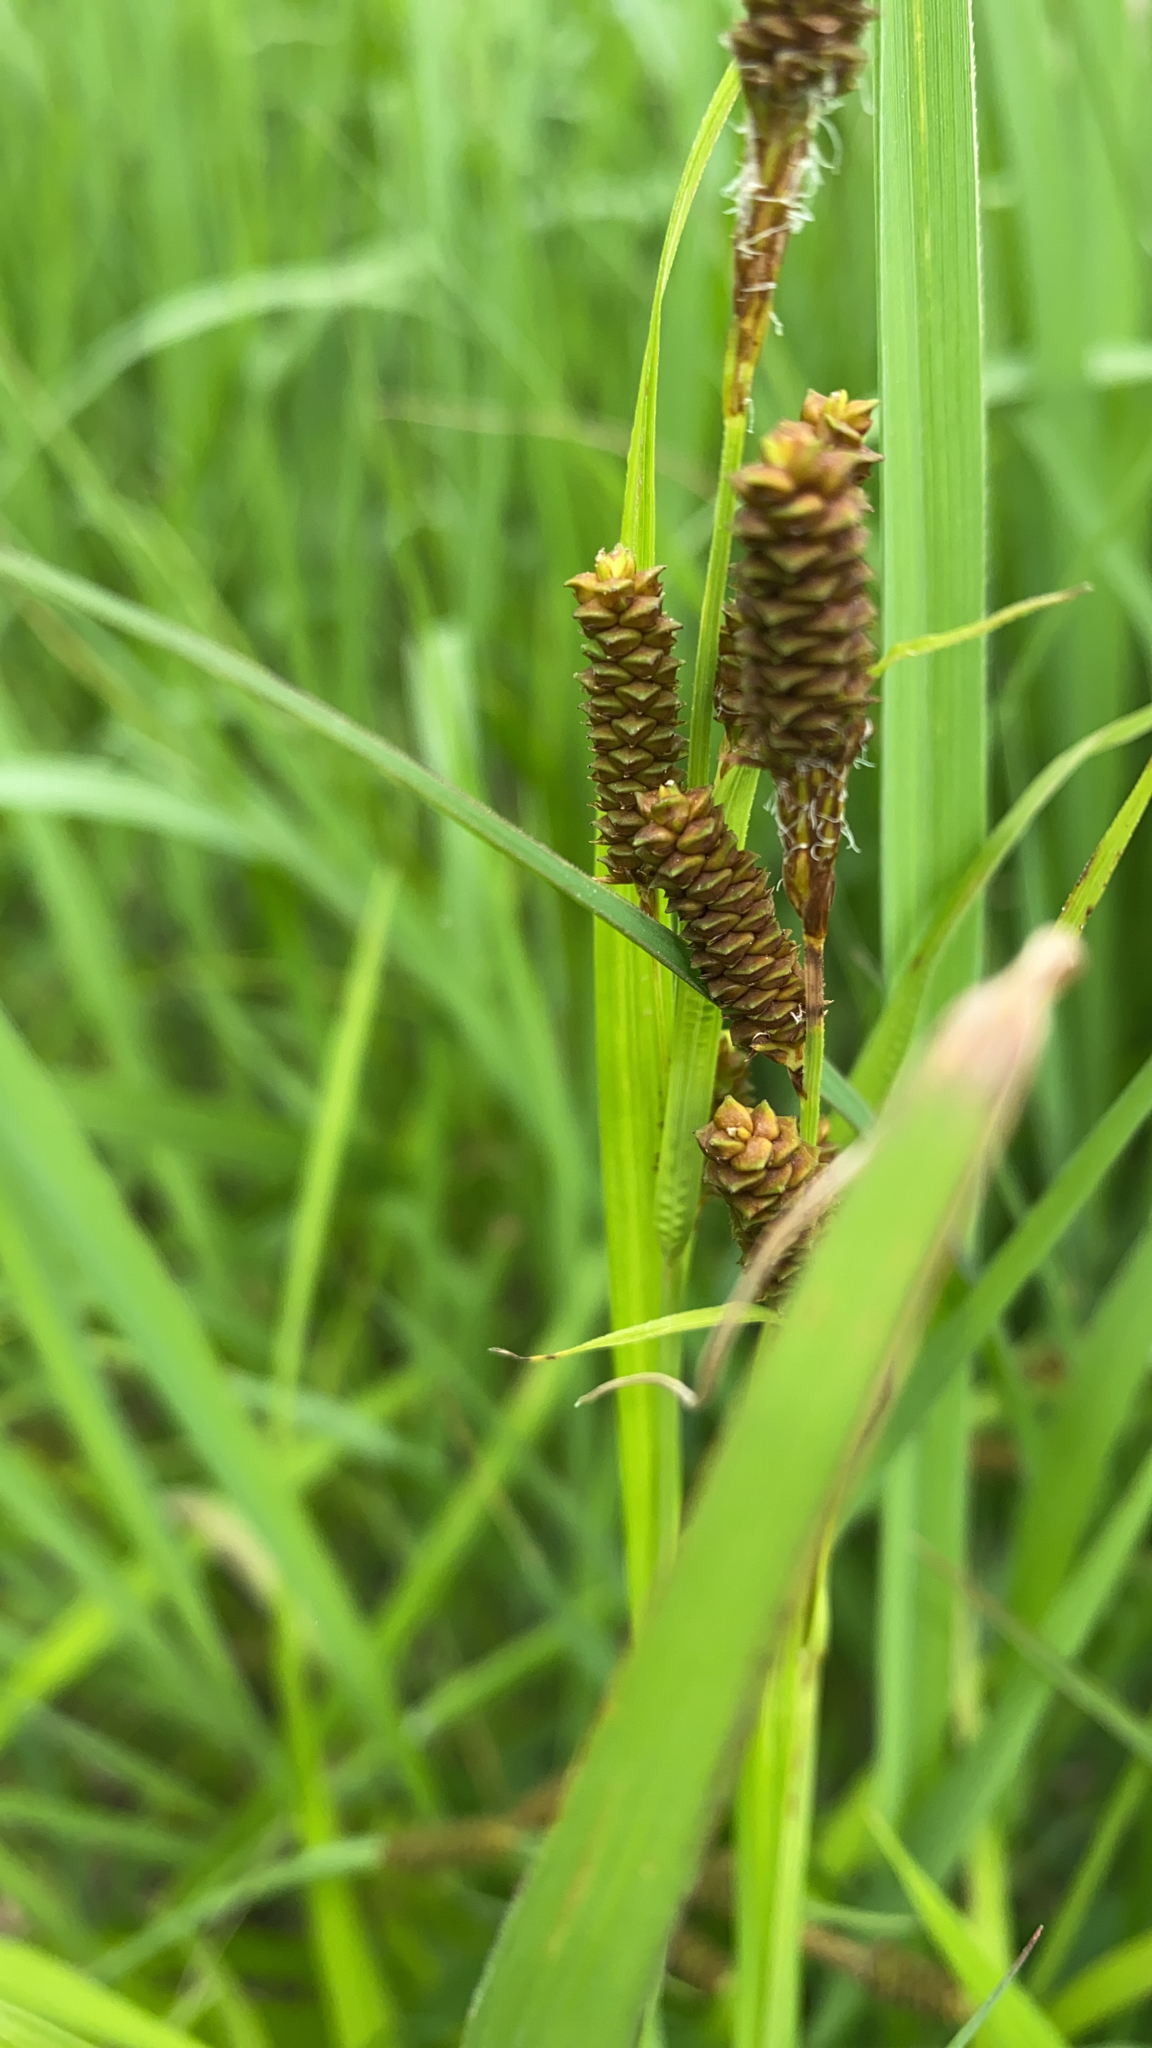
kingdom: Plantae
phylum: Tracheophyta
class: Liliopsida
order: Poales
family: Cyperaceae
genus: Carex
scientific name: Carex shortiana
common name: Short's sedge
